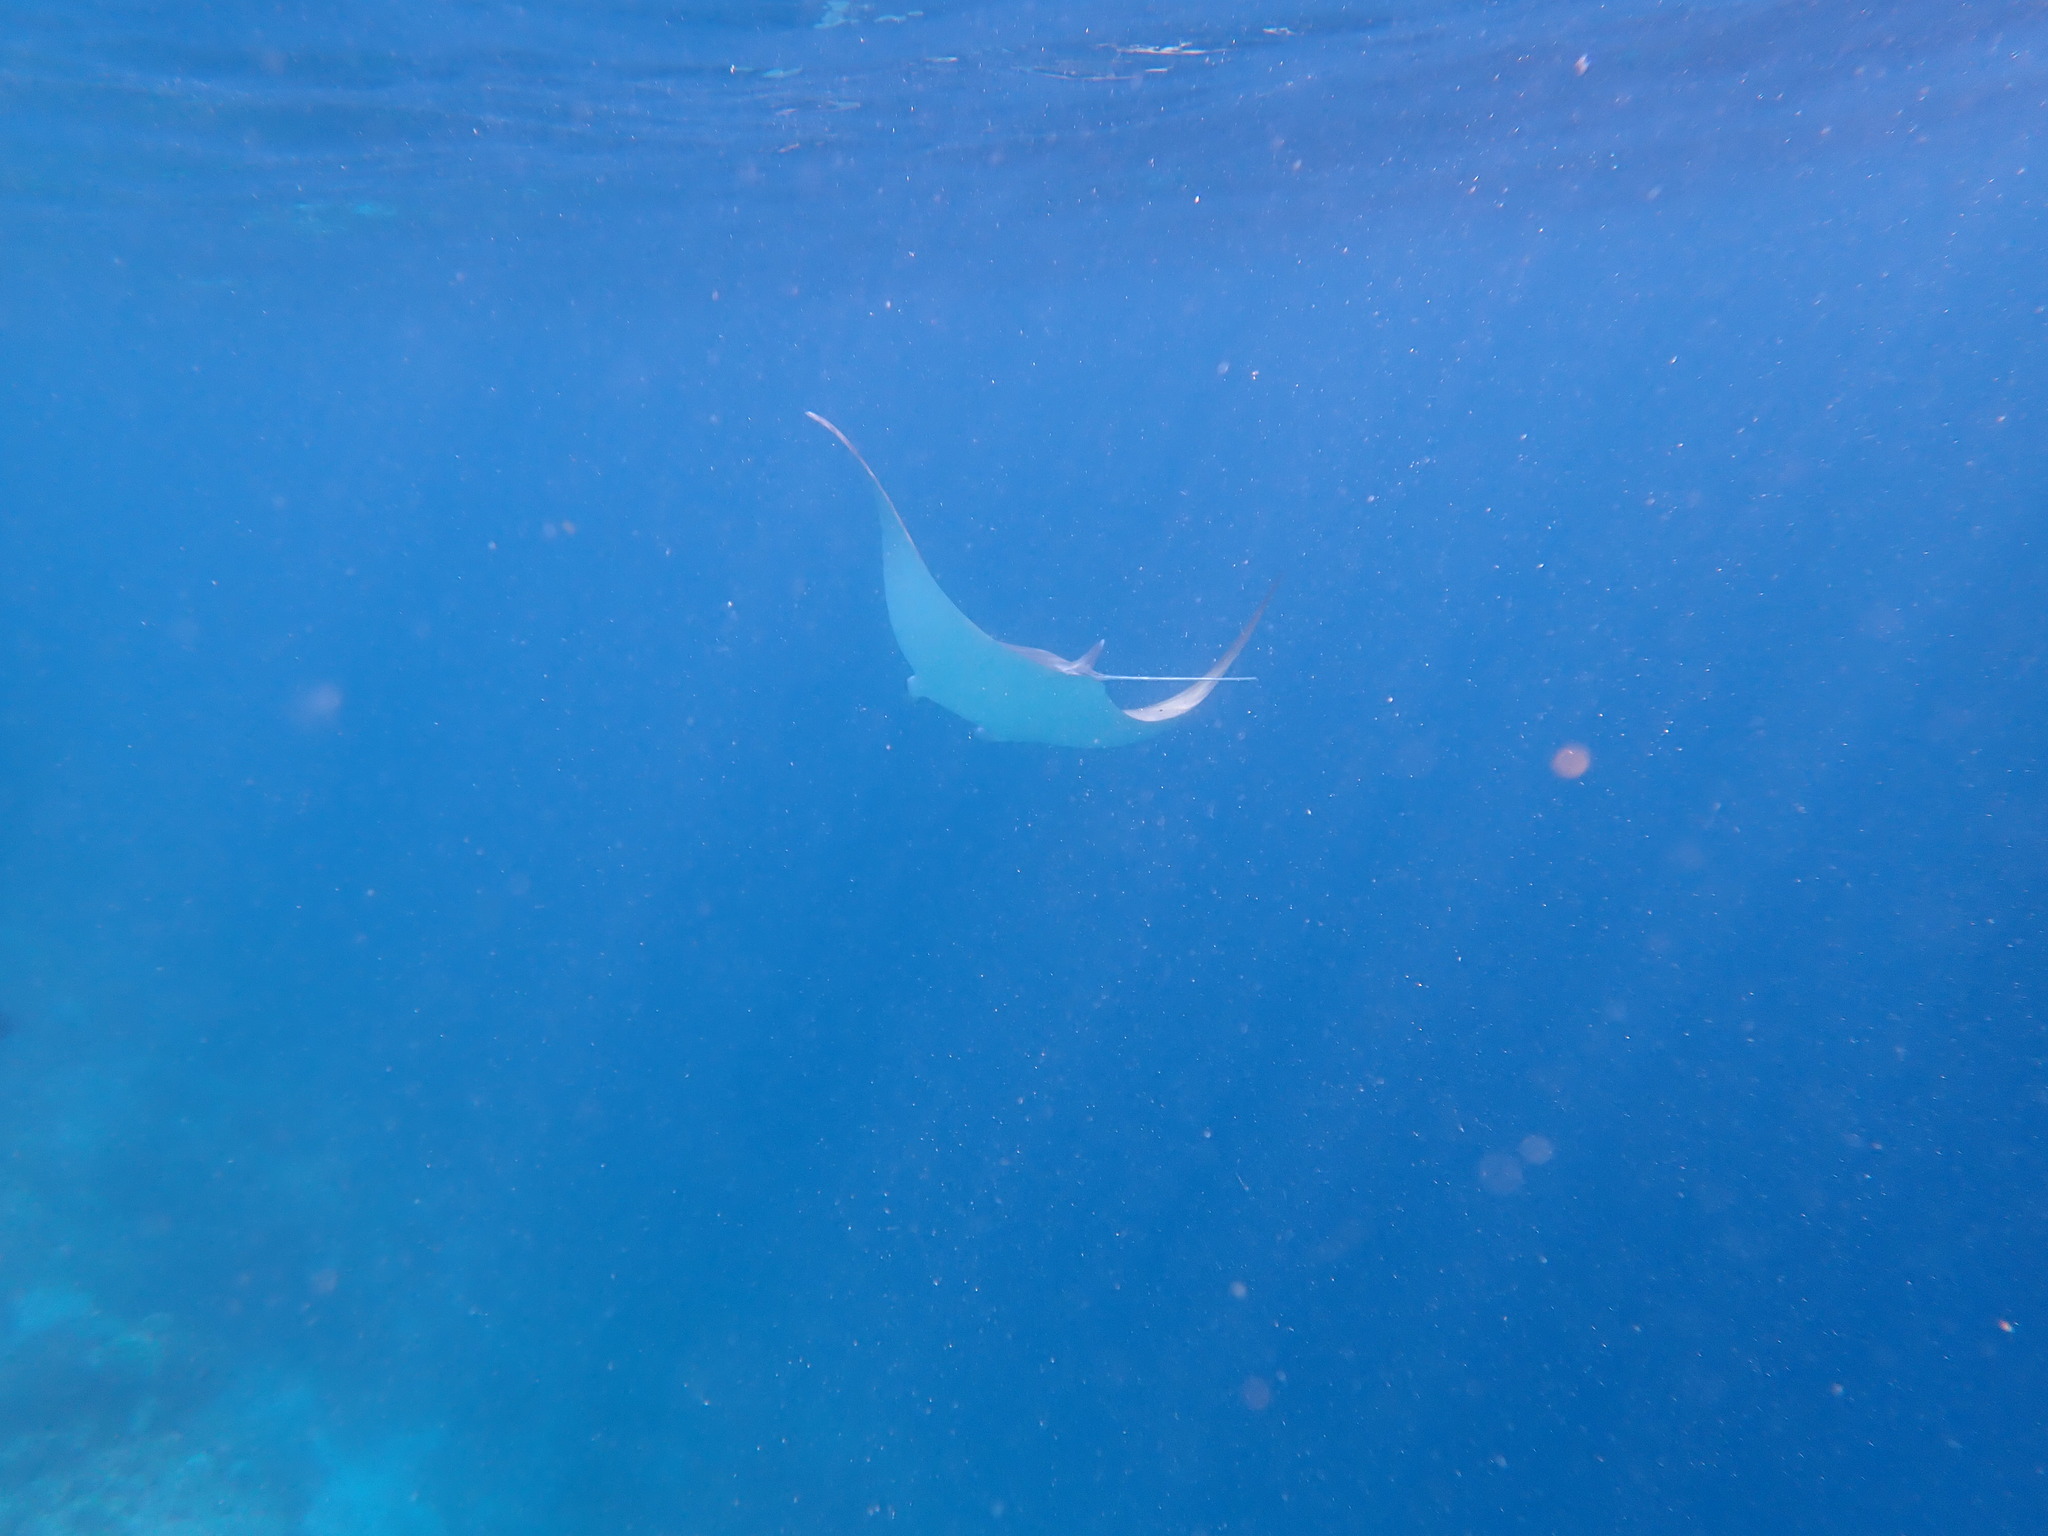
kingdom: Animalia
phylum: Chordata
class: Elasmobranchii
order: Myliobatiformes
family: Myliobatidae
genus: Mobula
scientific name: Mobula kuhlii
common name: Shortfin devil ray
